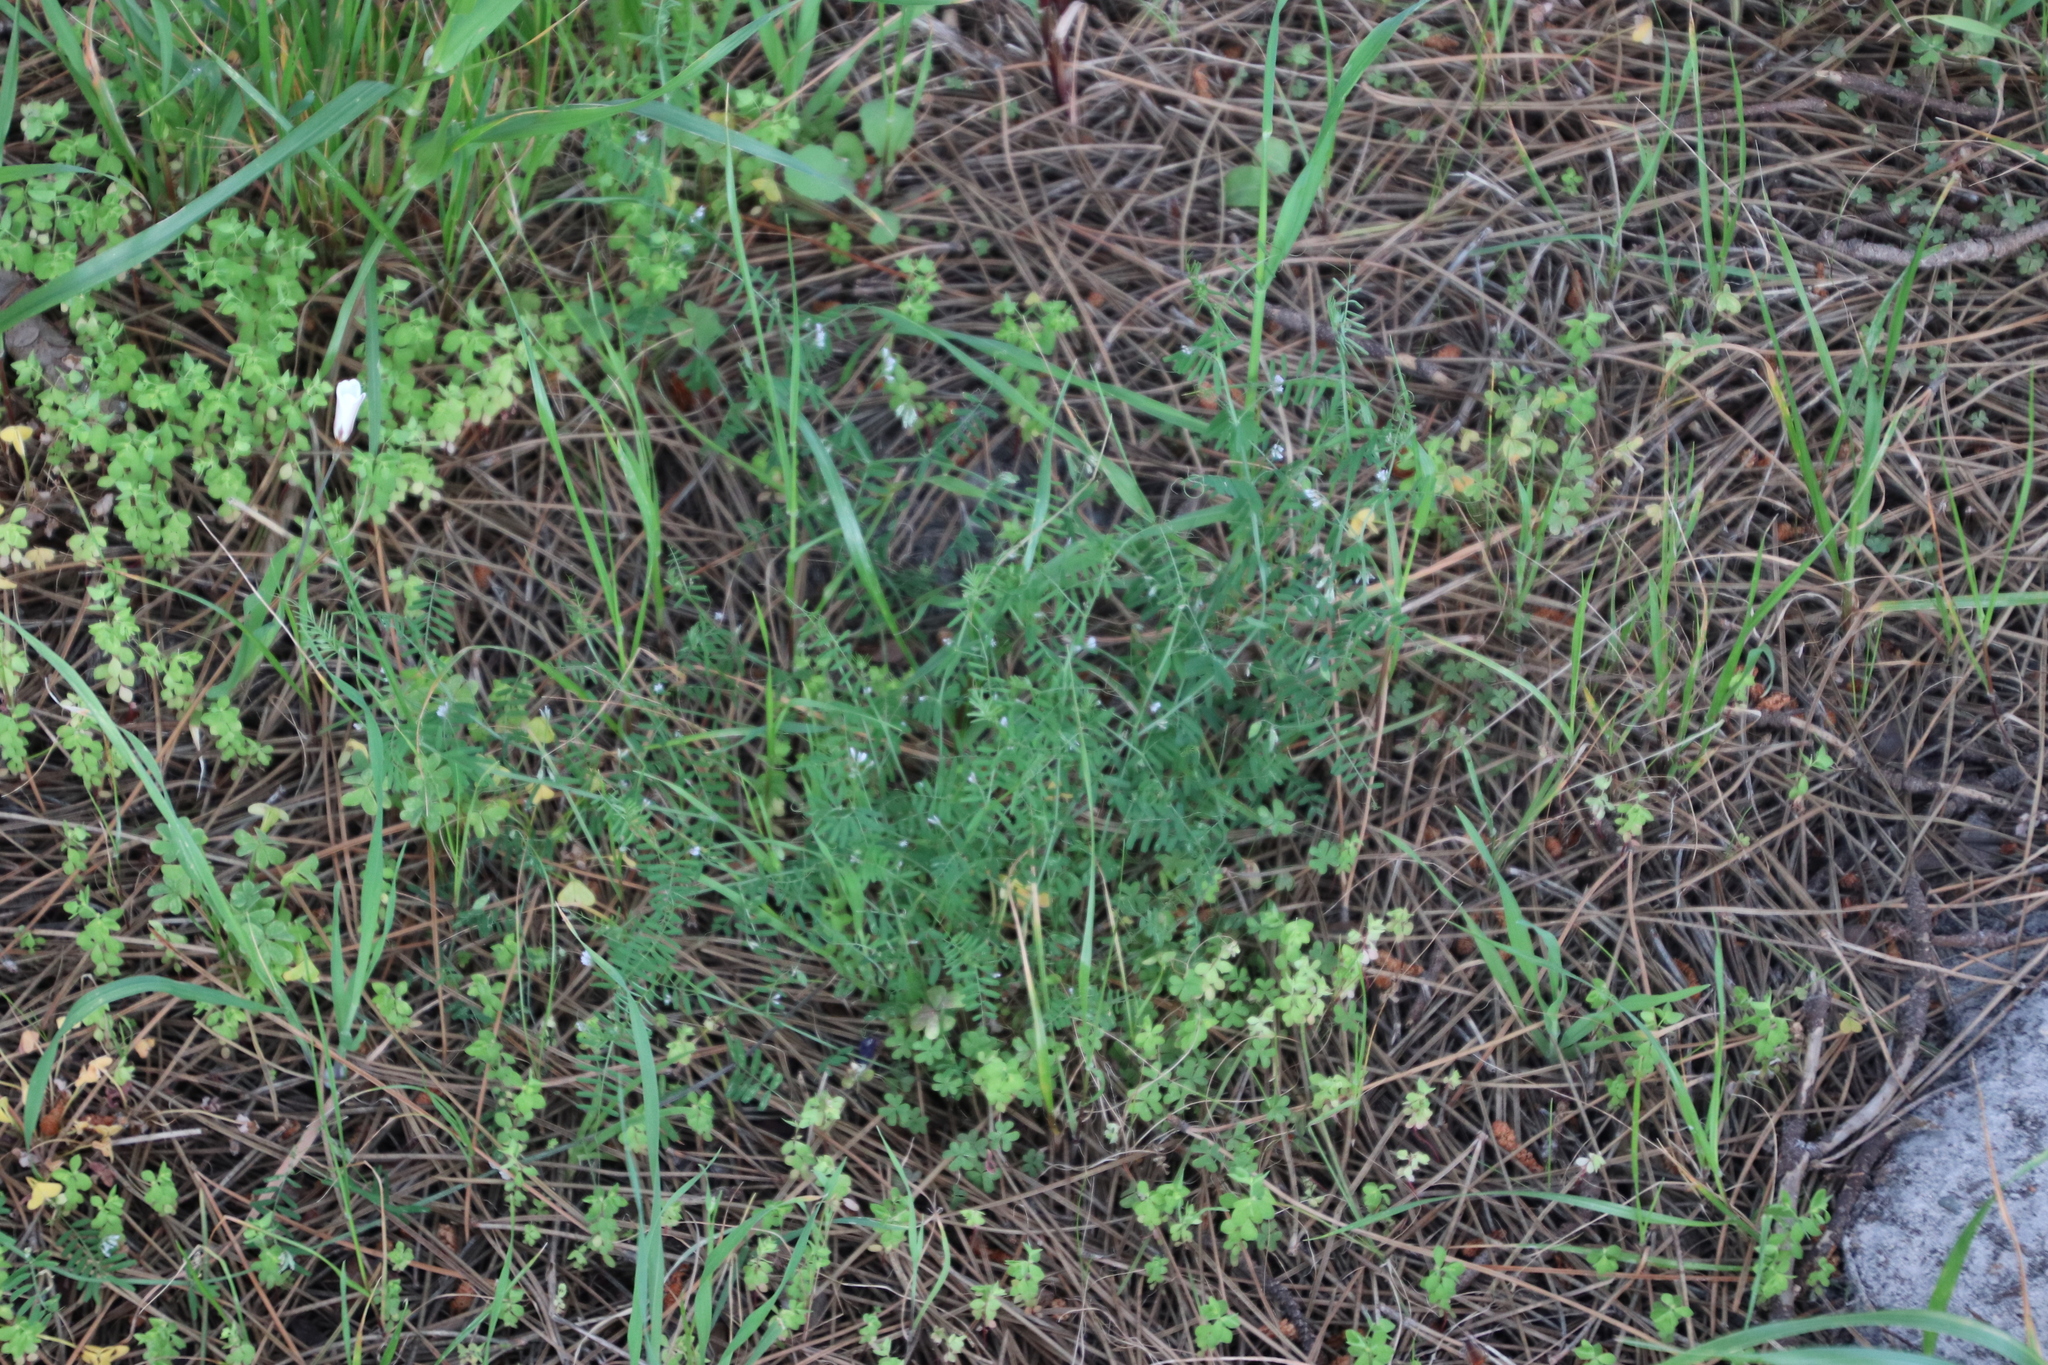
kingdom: Plantae
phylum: Tracheophyta
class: Magnoliopsida
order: Fabales
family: Fabaceae
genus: Vicia
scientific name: Vicia hirsuta
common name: Tiny vetch
